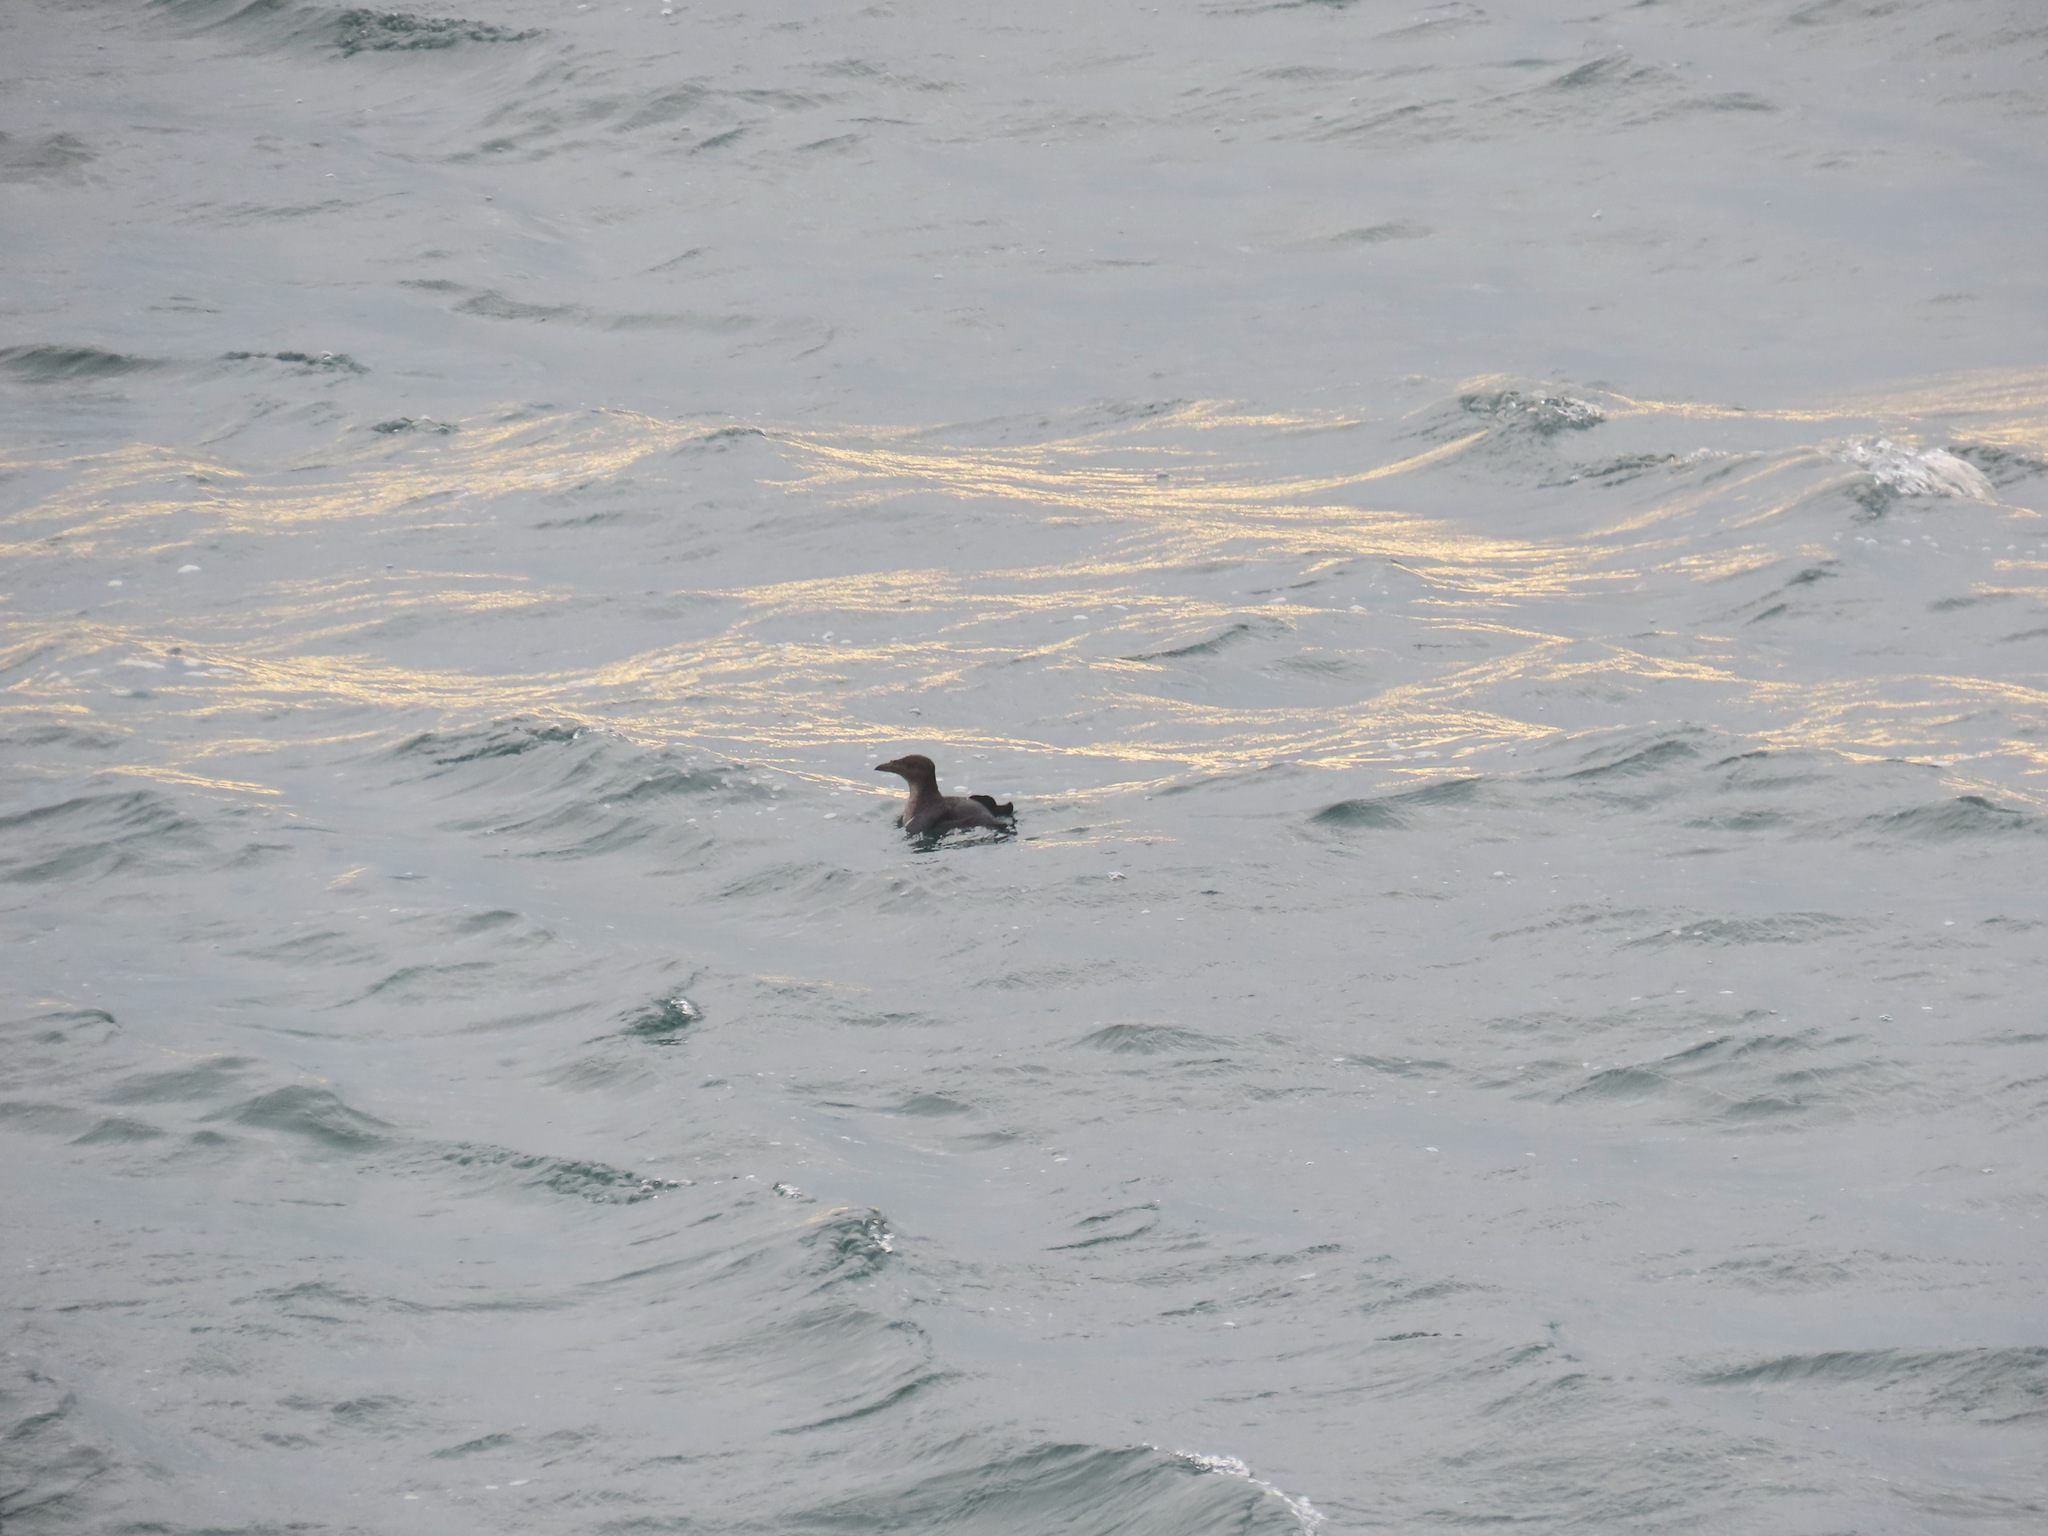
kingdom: Animalia
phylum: Chordata
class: Aves
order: Charadriiformes
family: Alcidae
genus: Cerorhinca
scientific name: Cerorhinca monocerata
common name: Rhinoceros auklet
